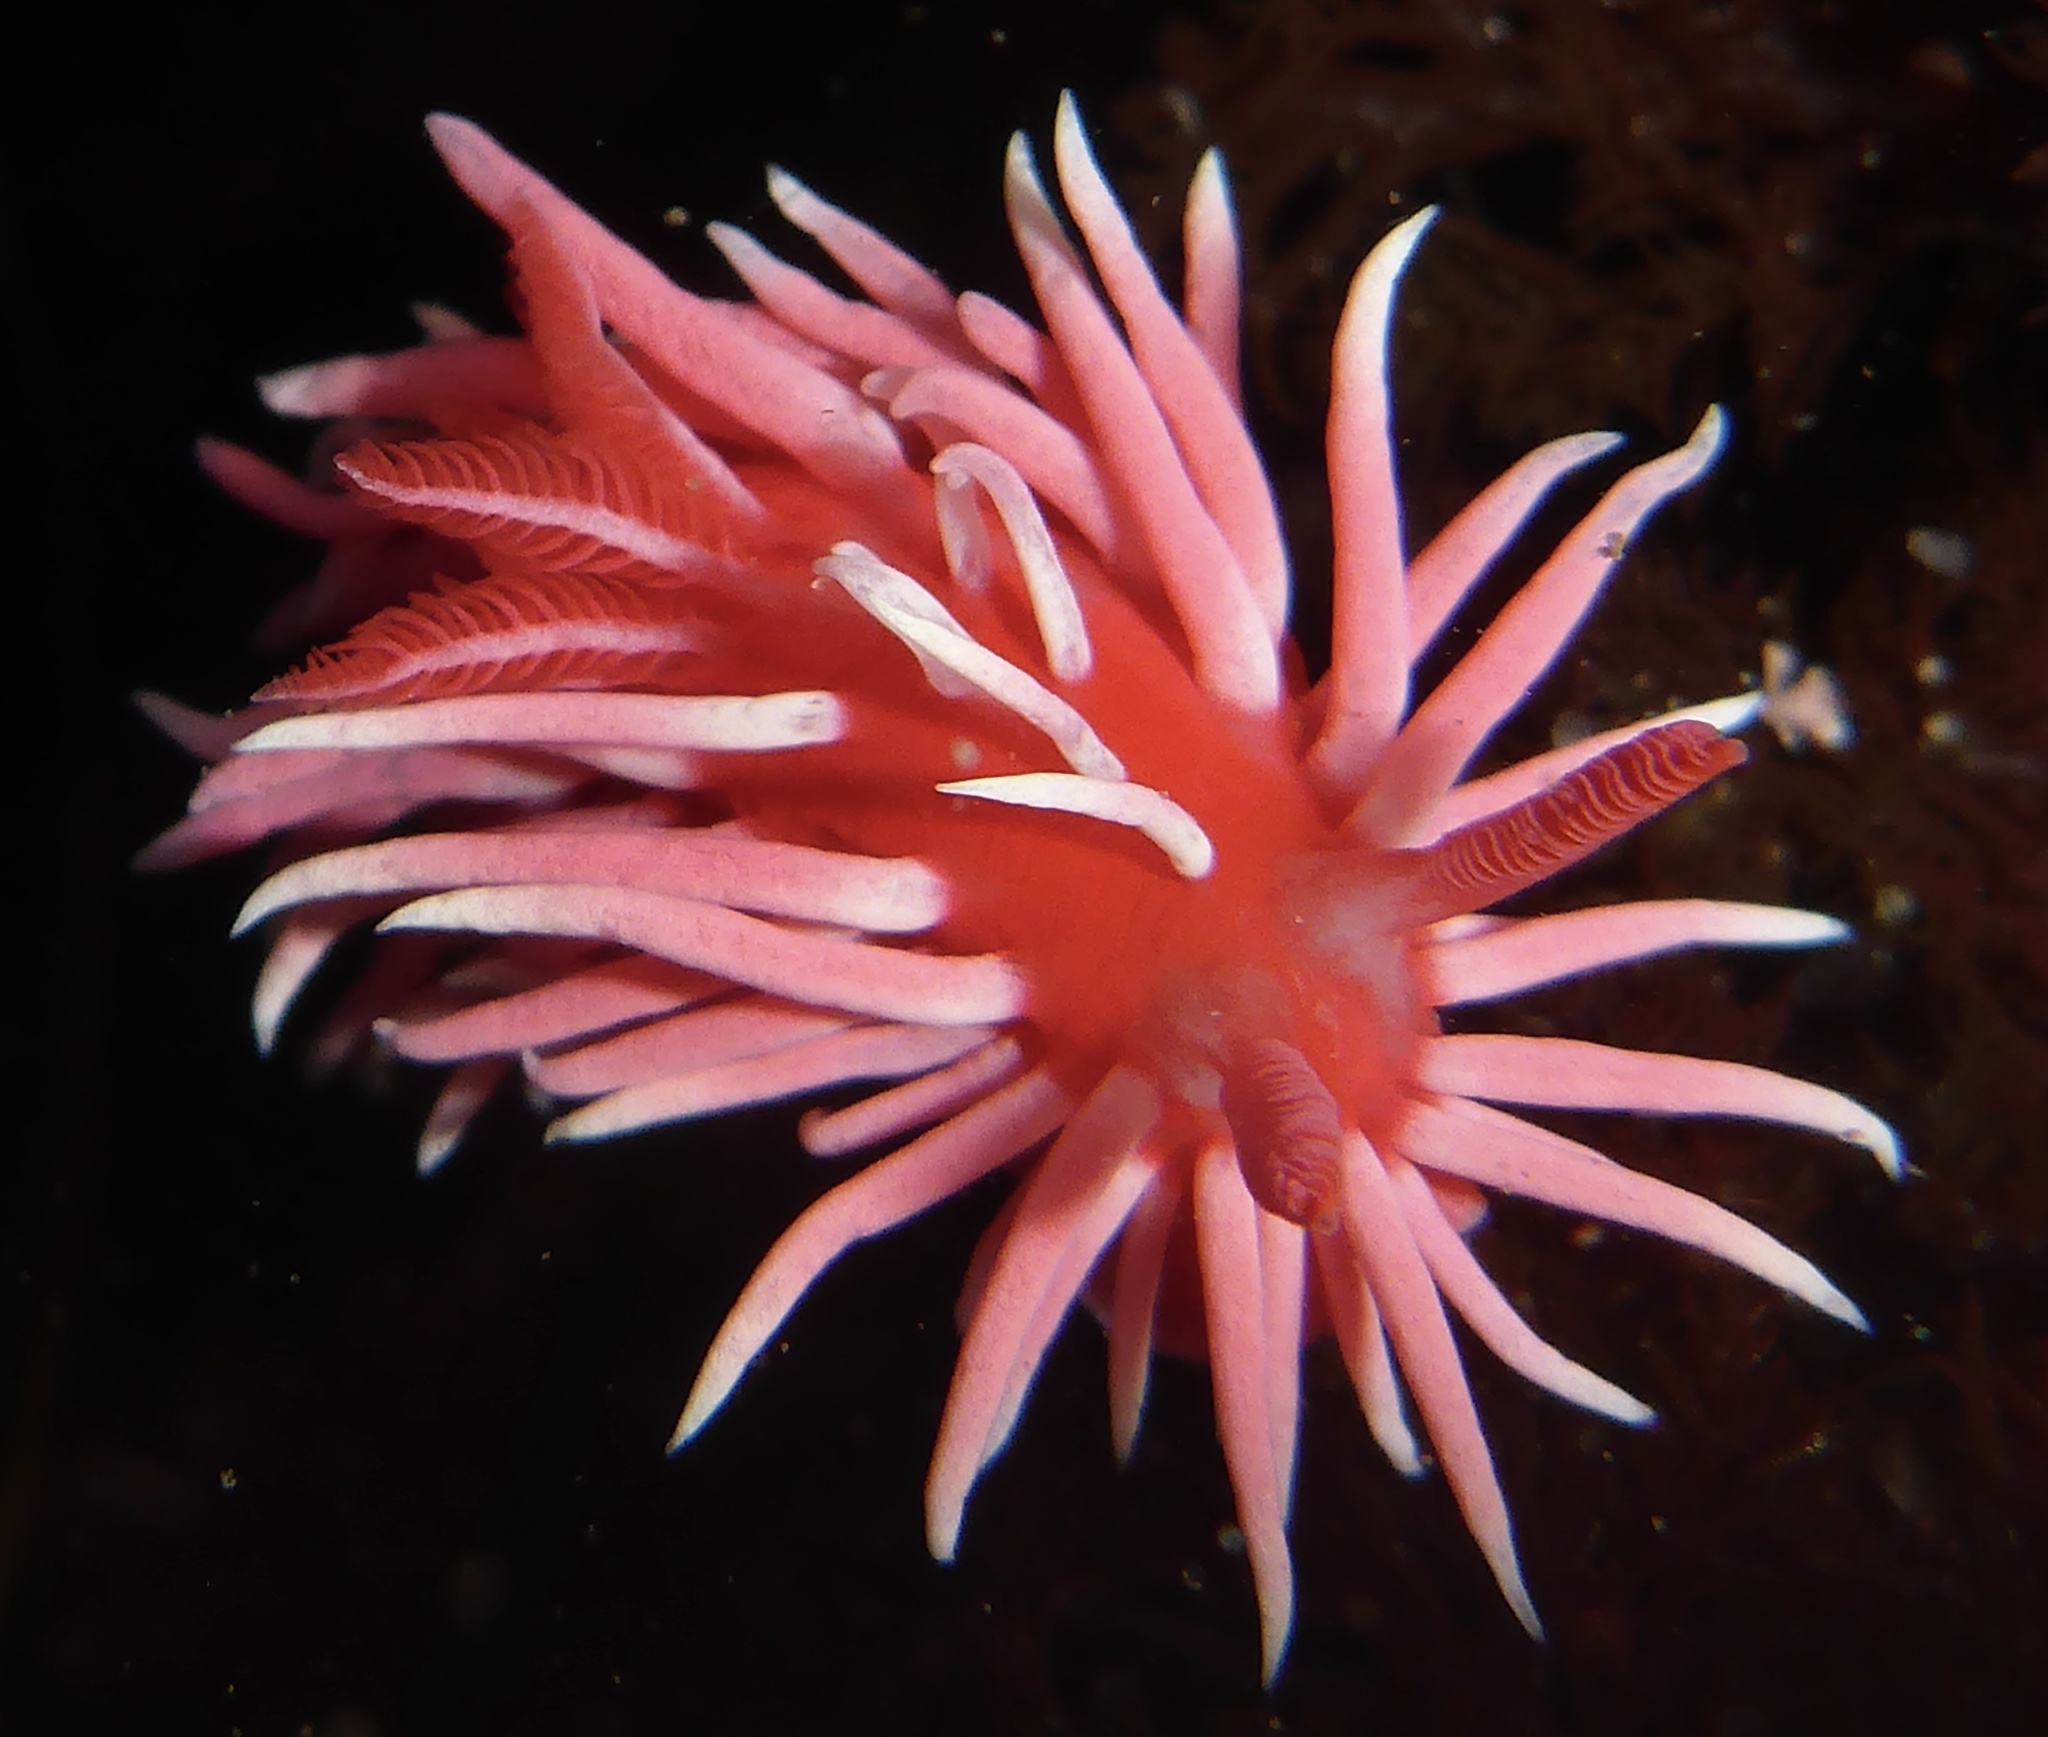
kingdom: Animalia
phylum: Mollusca
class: Gastropoda
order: Nudibranchia
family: Goniodorididae
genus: Okenia
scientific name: Okenia
